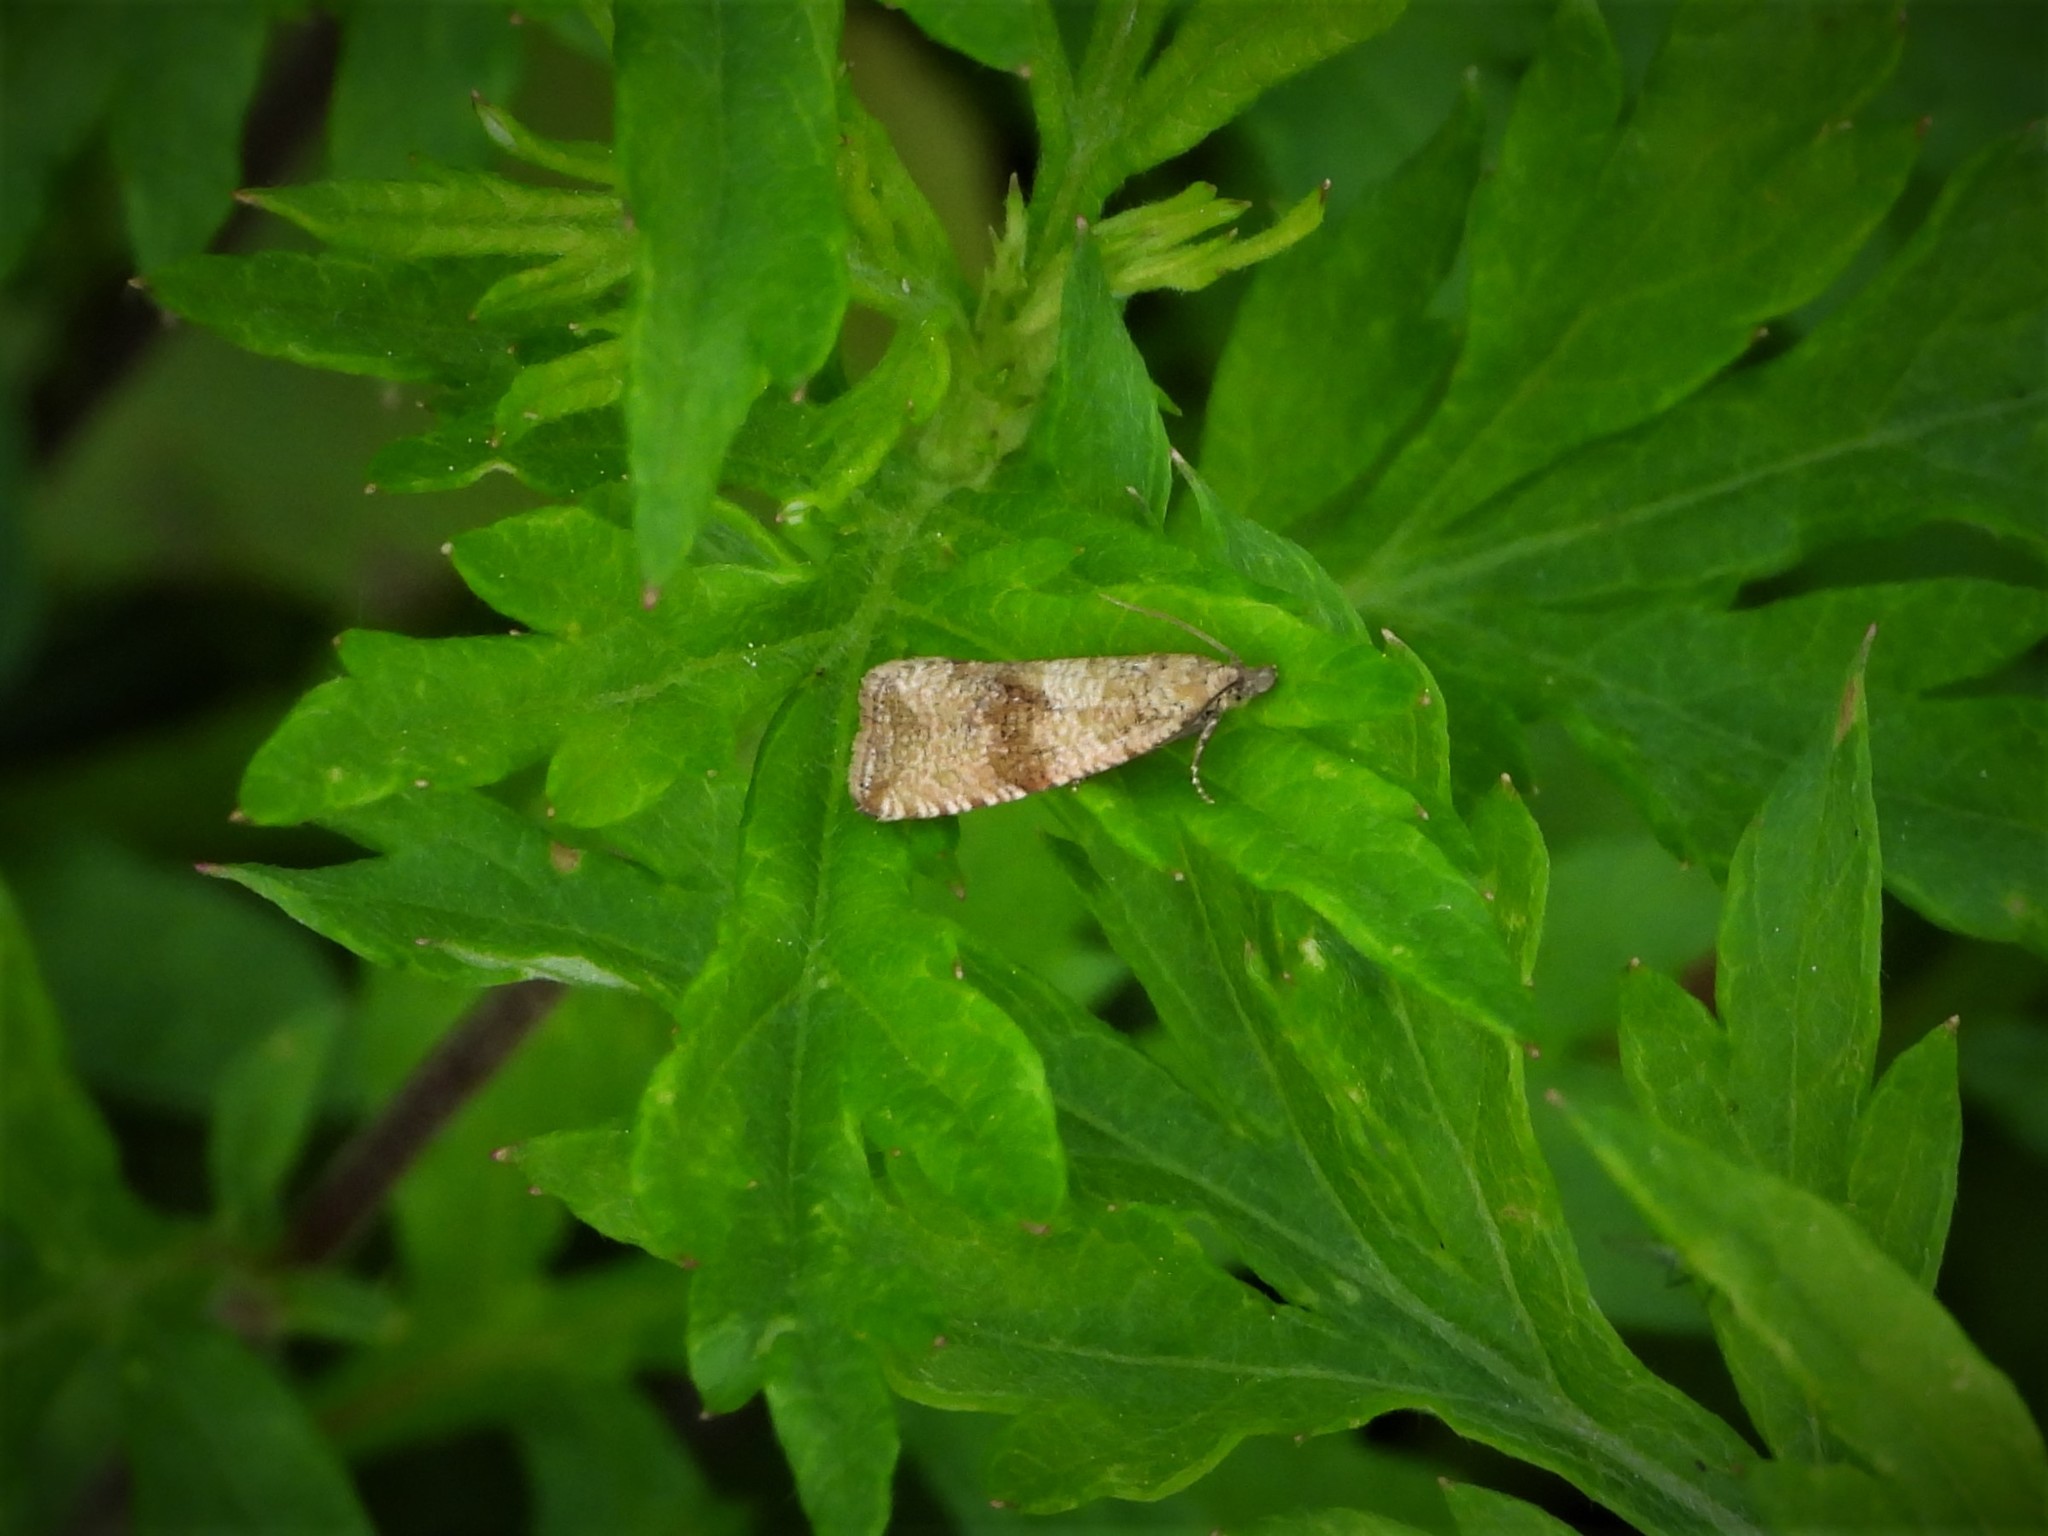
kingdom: Animalia
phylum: Arthropoda
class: Insecta
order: Lepidoptera
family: Tortricidae
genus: Celypha
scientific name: Celypha striana
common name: Barred marble
